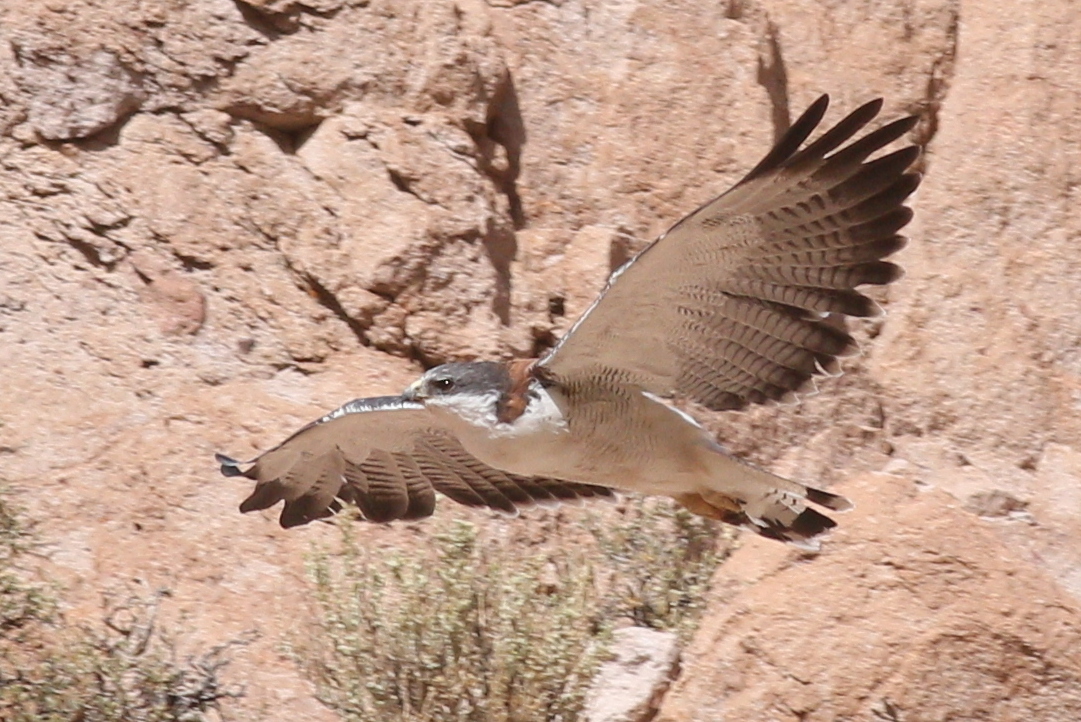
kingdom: Animalia
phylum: Chordata
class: Aves
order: Accipitriformes
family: Accipitridae
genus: Buteo
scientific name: Buteo polyosoma
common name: Variable hawk
